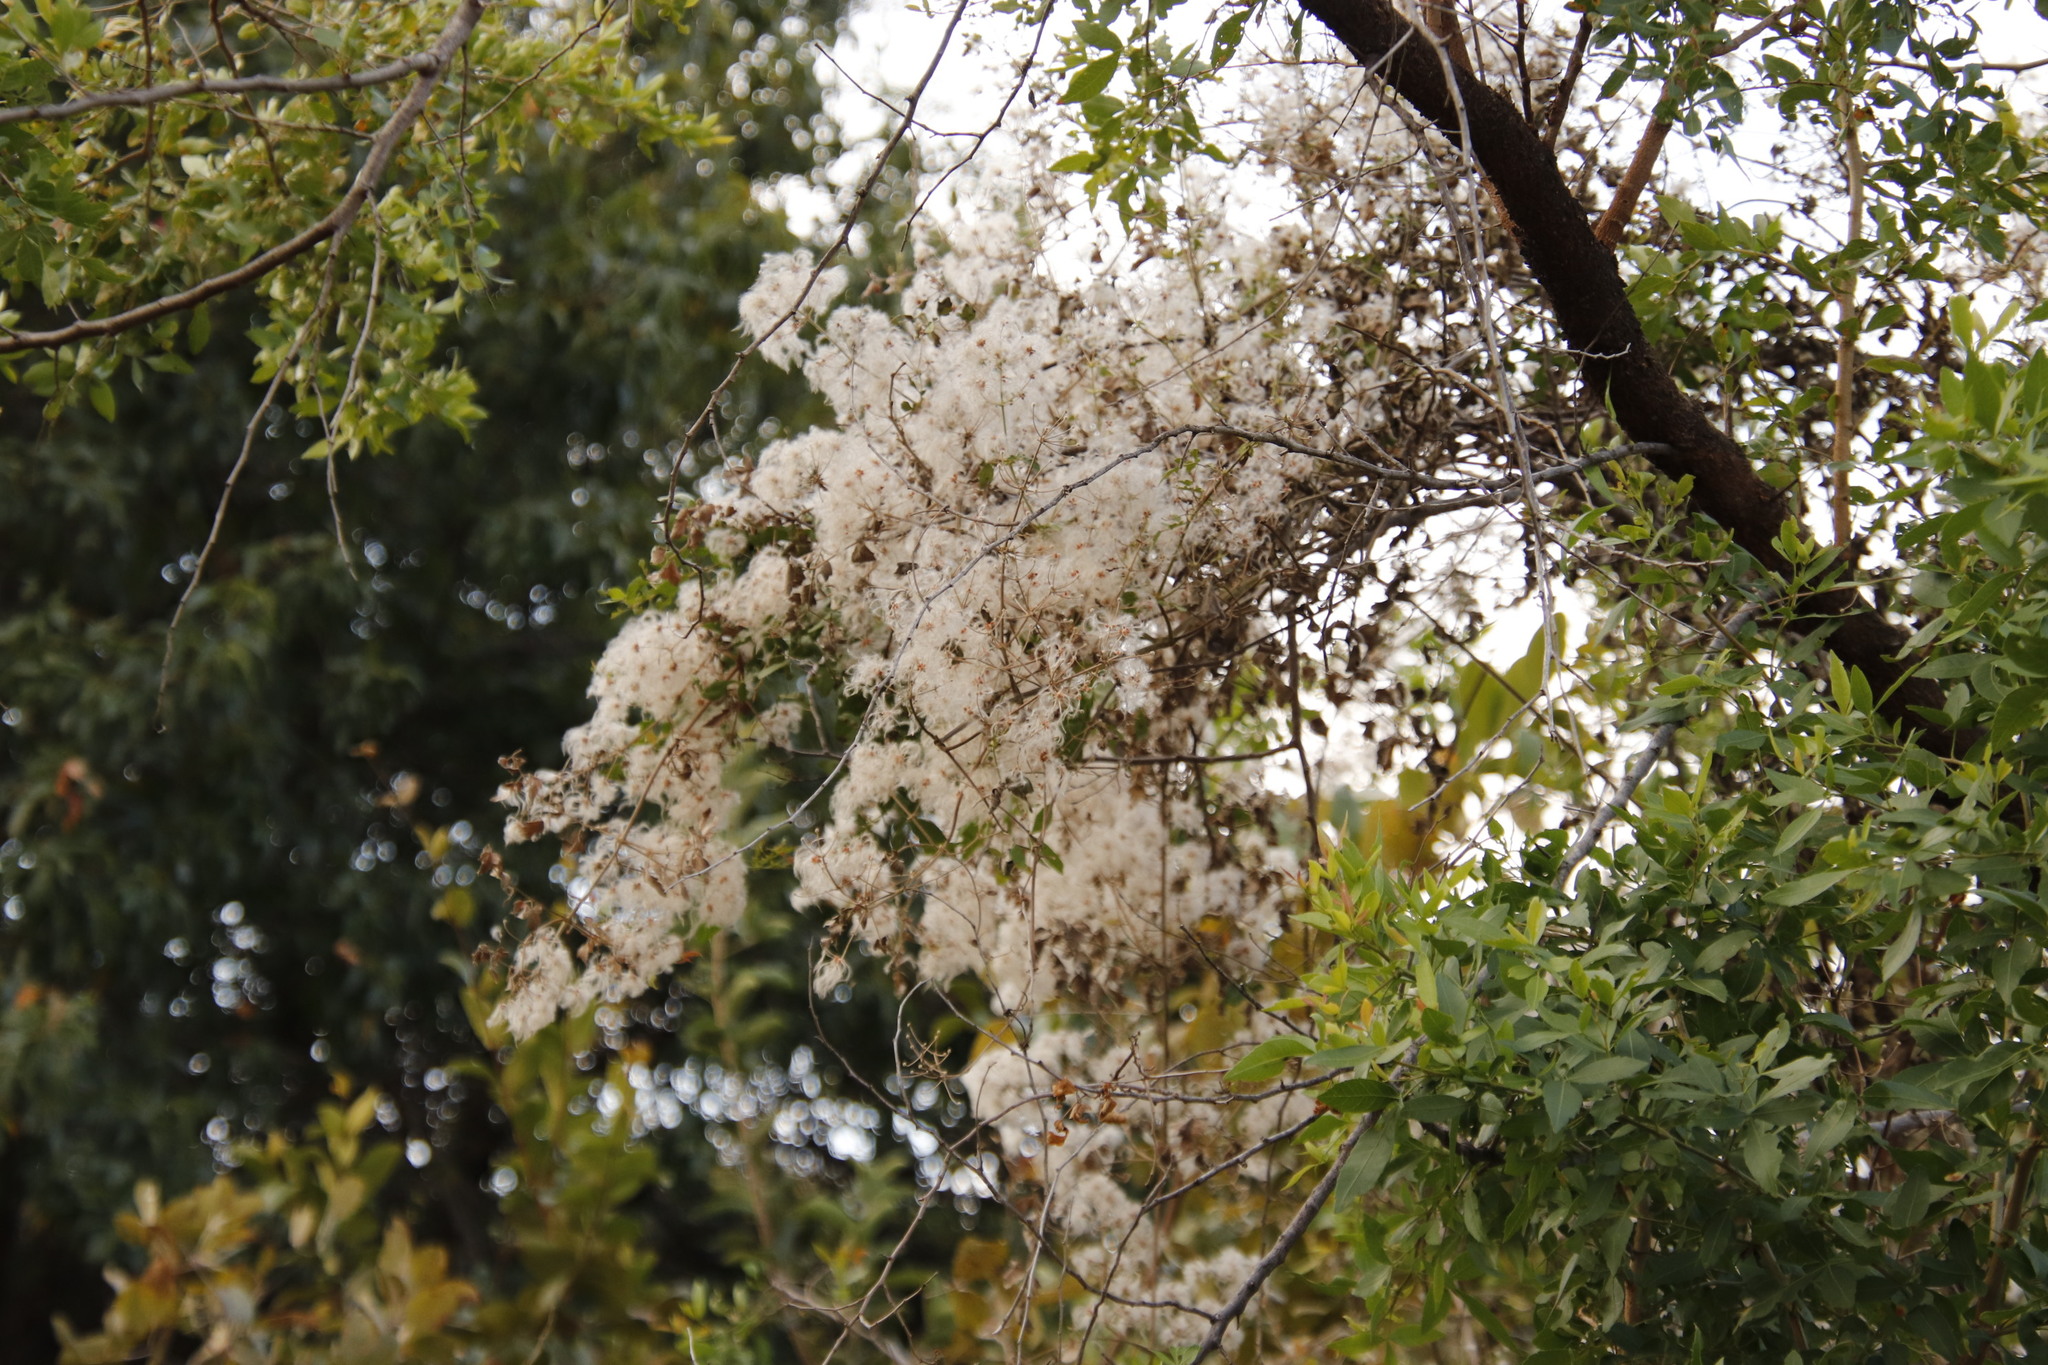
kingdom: Plantae
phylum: Tracheophyta
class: Magnoliopsida
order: Ranunculales
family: Ranunculaceae
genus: Clematis
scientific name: Clematis brachiata
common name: Traveler's-joy
